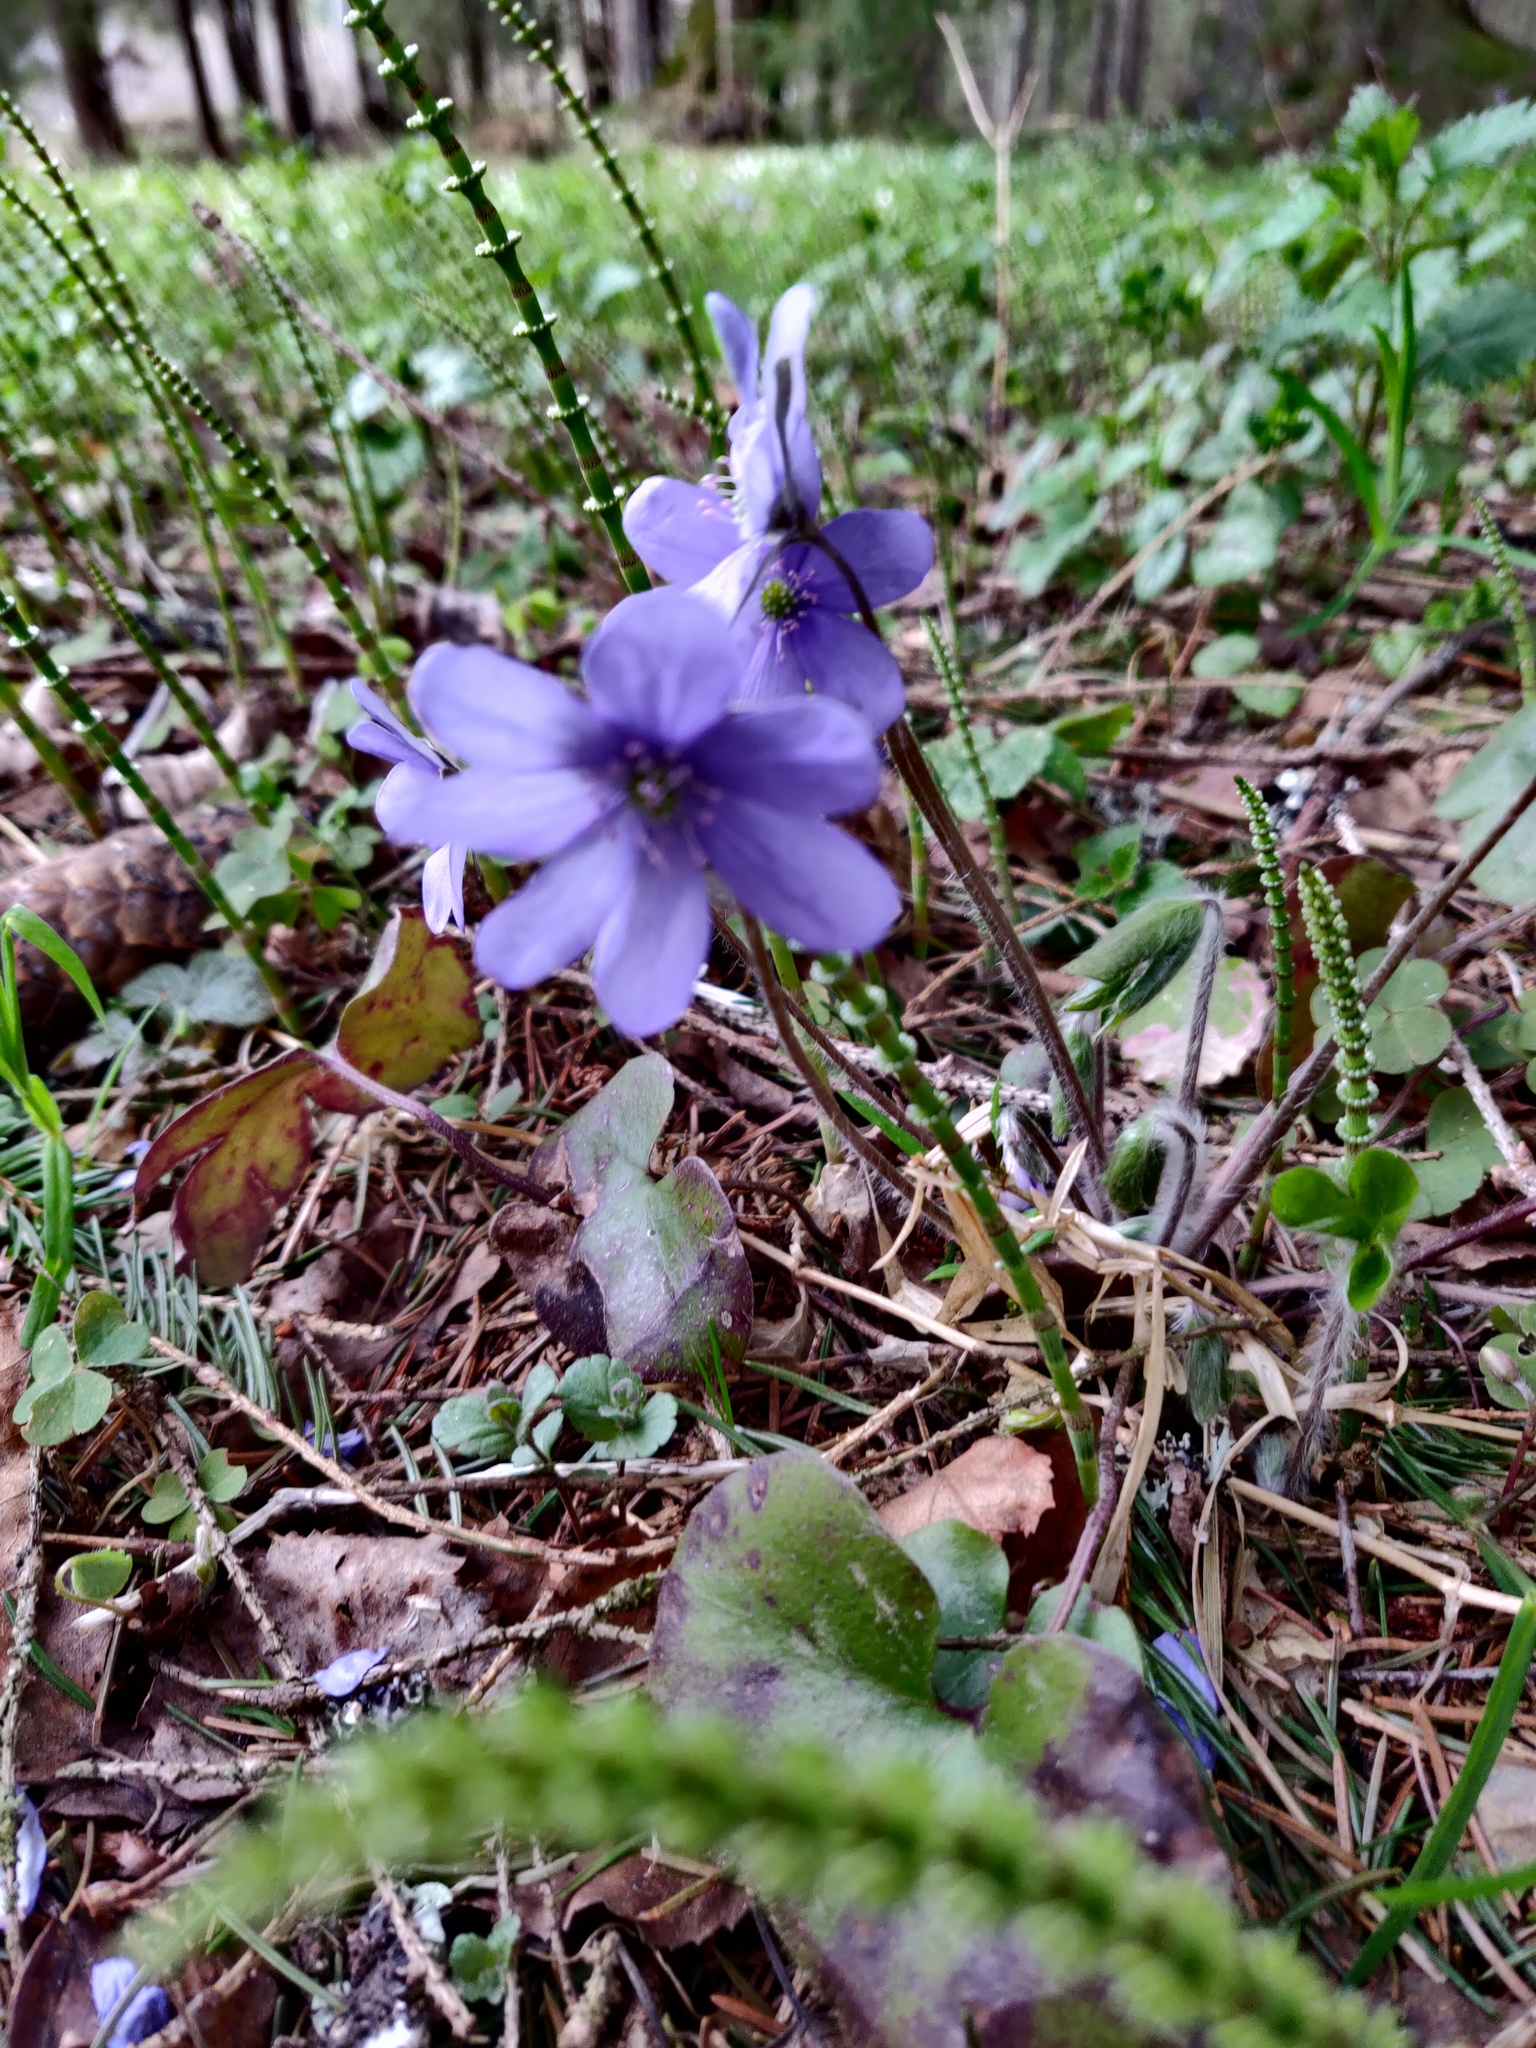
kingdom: Plantae
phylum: Tracheophyta
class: Magnoliopsida
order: Ranunculales
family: Ranunculaceae
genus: Hepatica
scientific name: Hepatica nobilis
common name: Liverleaf
